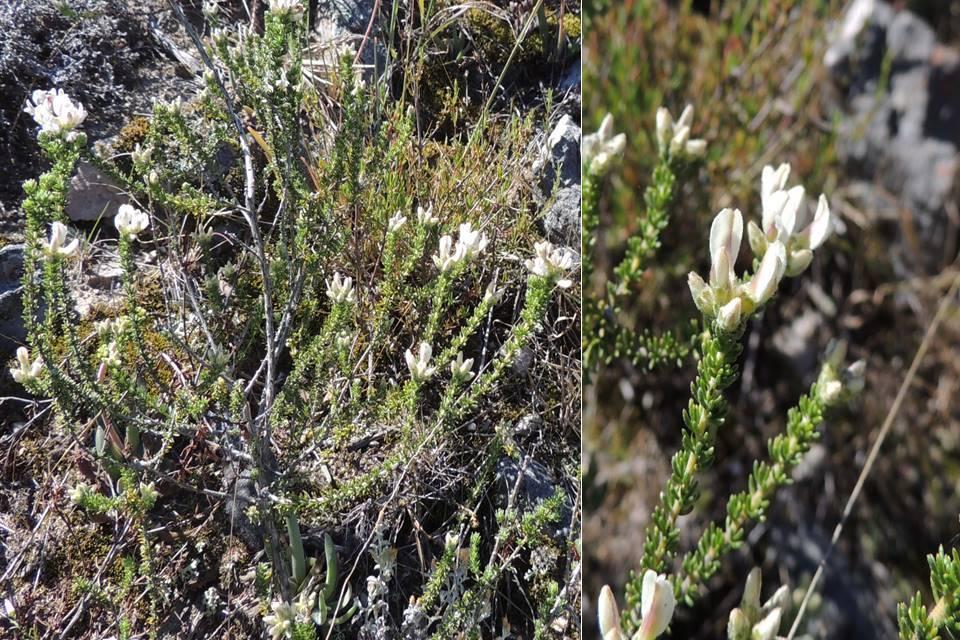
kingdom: Plantae
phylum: Tracheophyta
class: Magnoliopsida
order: Fabales
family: Fabaceae
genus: Aspalathus
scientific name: Aspalathus nigra
